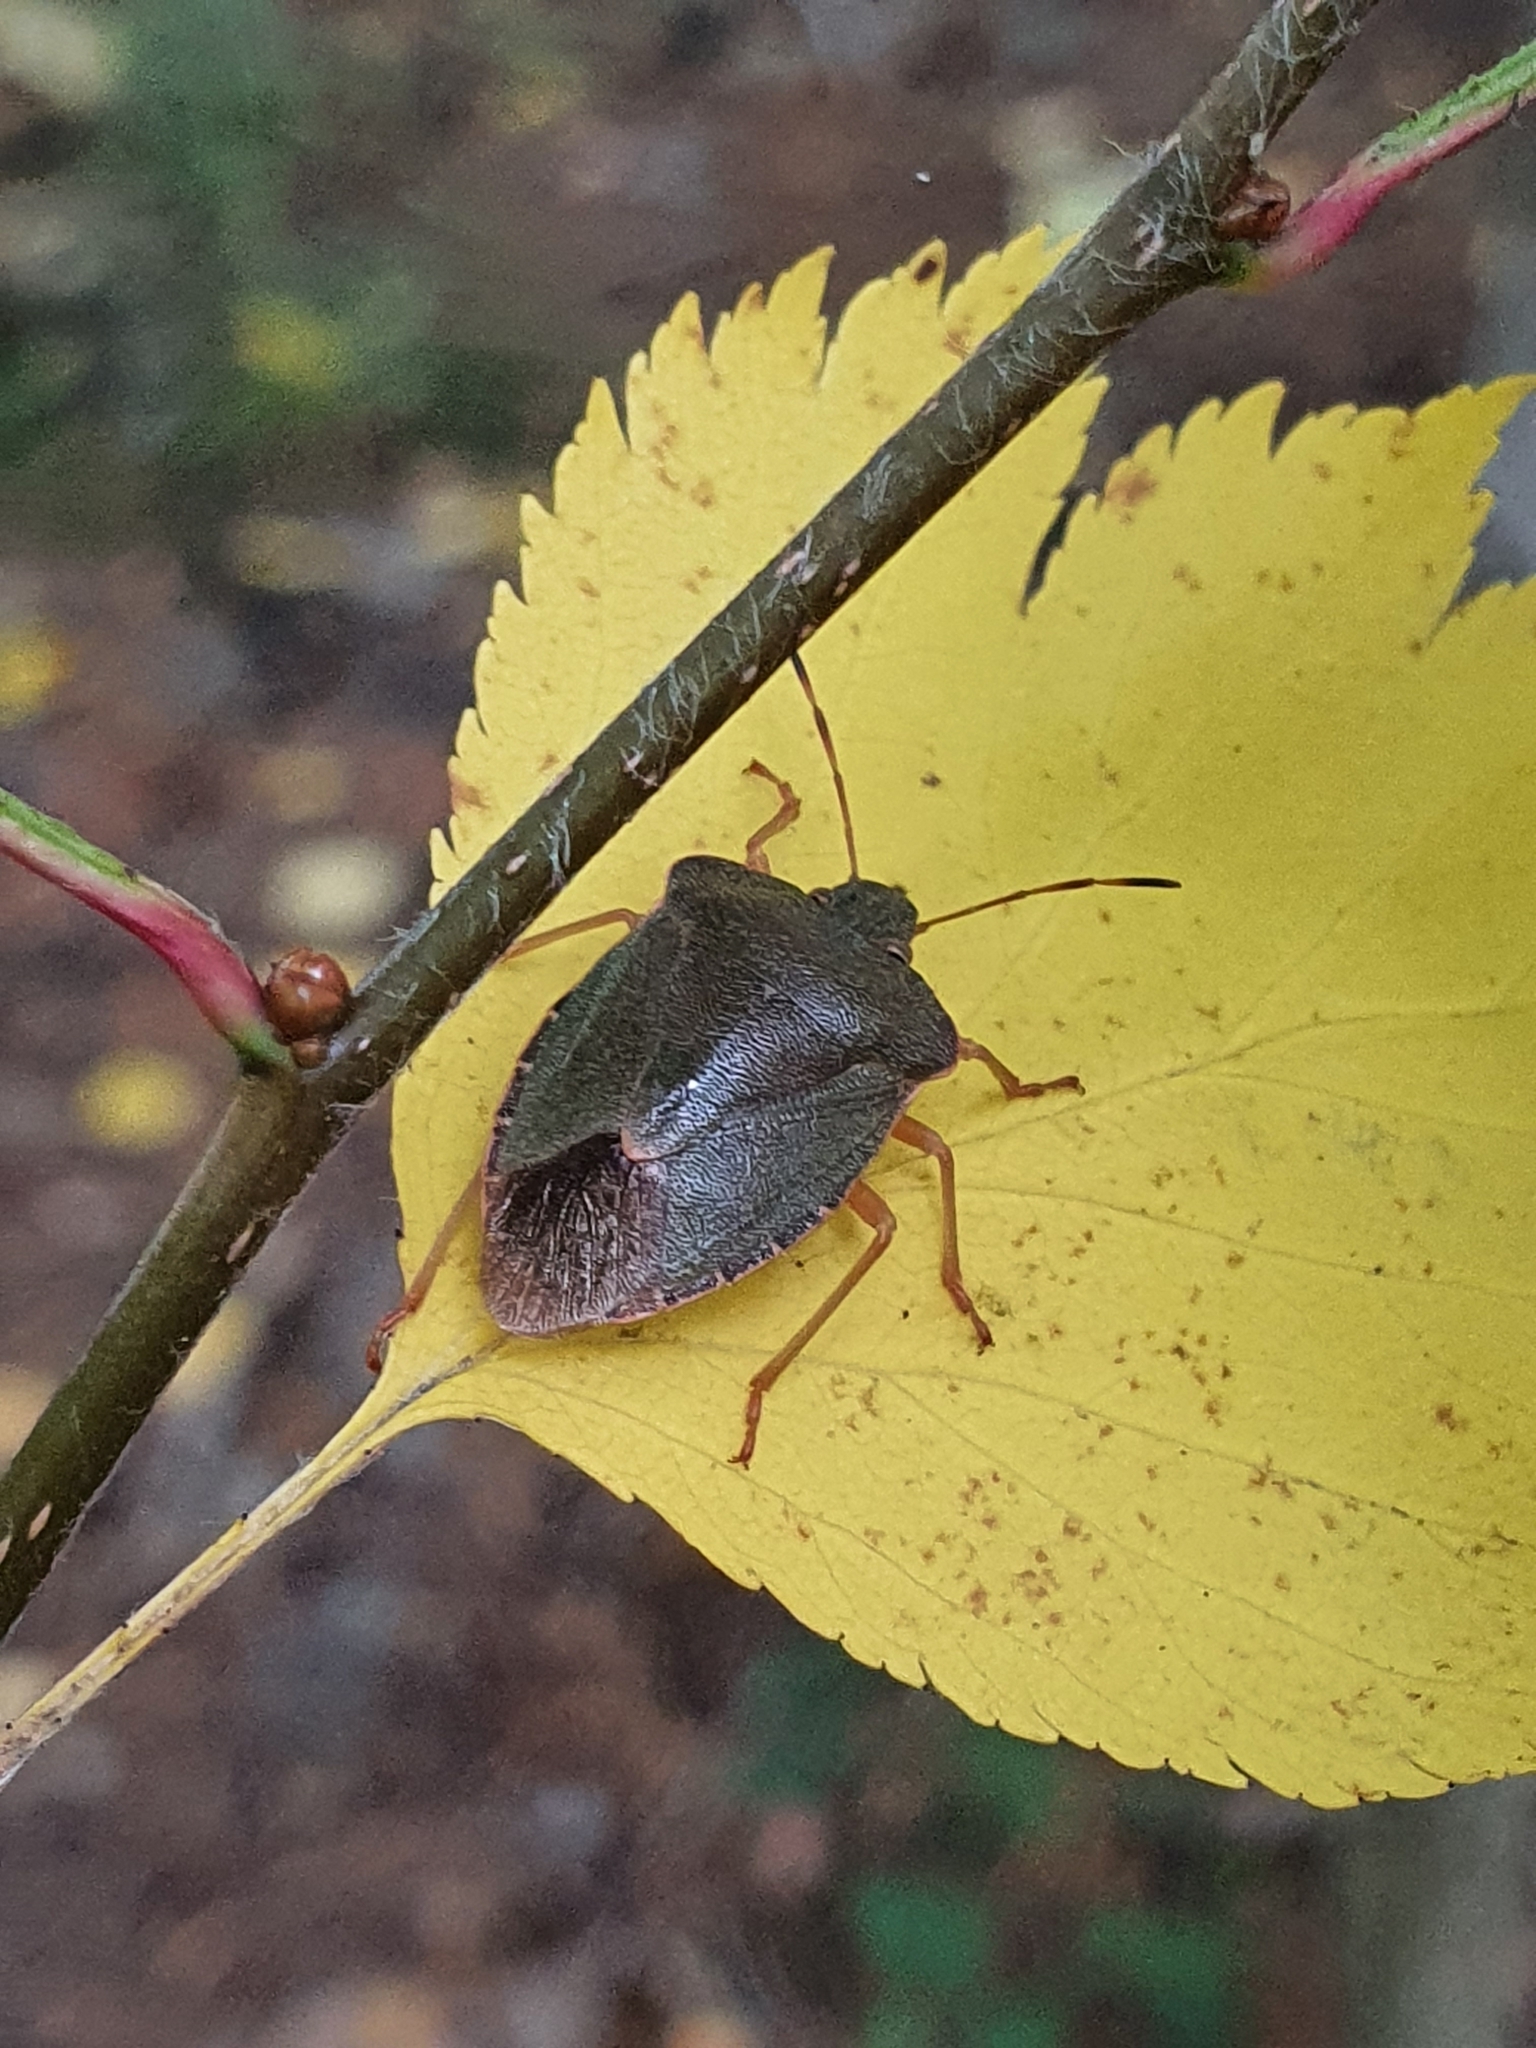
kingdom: Animalia
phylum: Arthropoda
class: Insecta
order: Hemiptera
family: Pentatomidae
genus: Palomena
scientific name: Palomena prasina
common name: Green shieldbug
